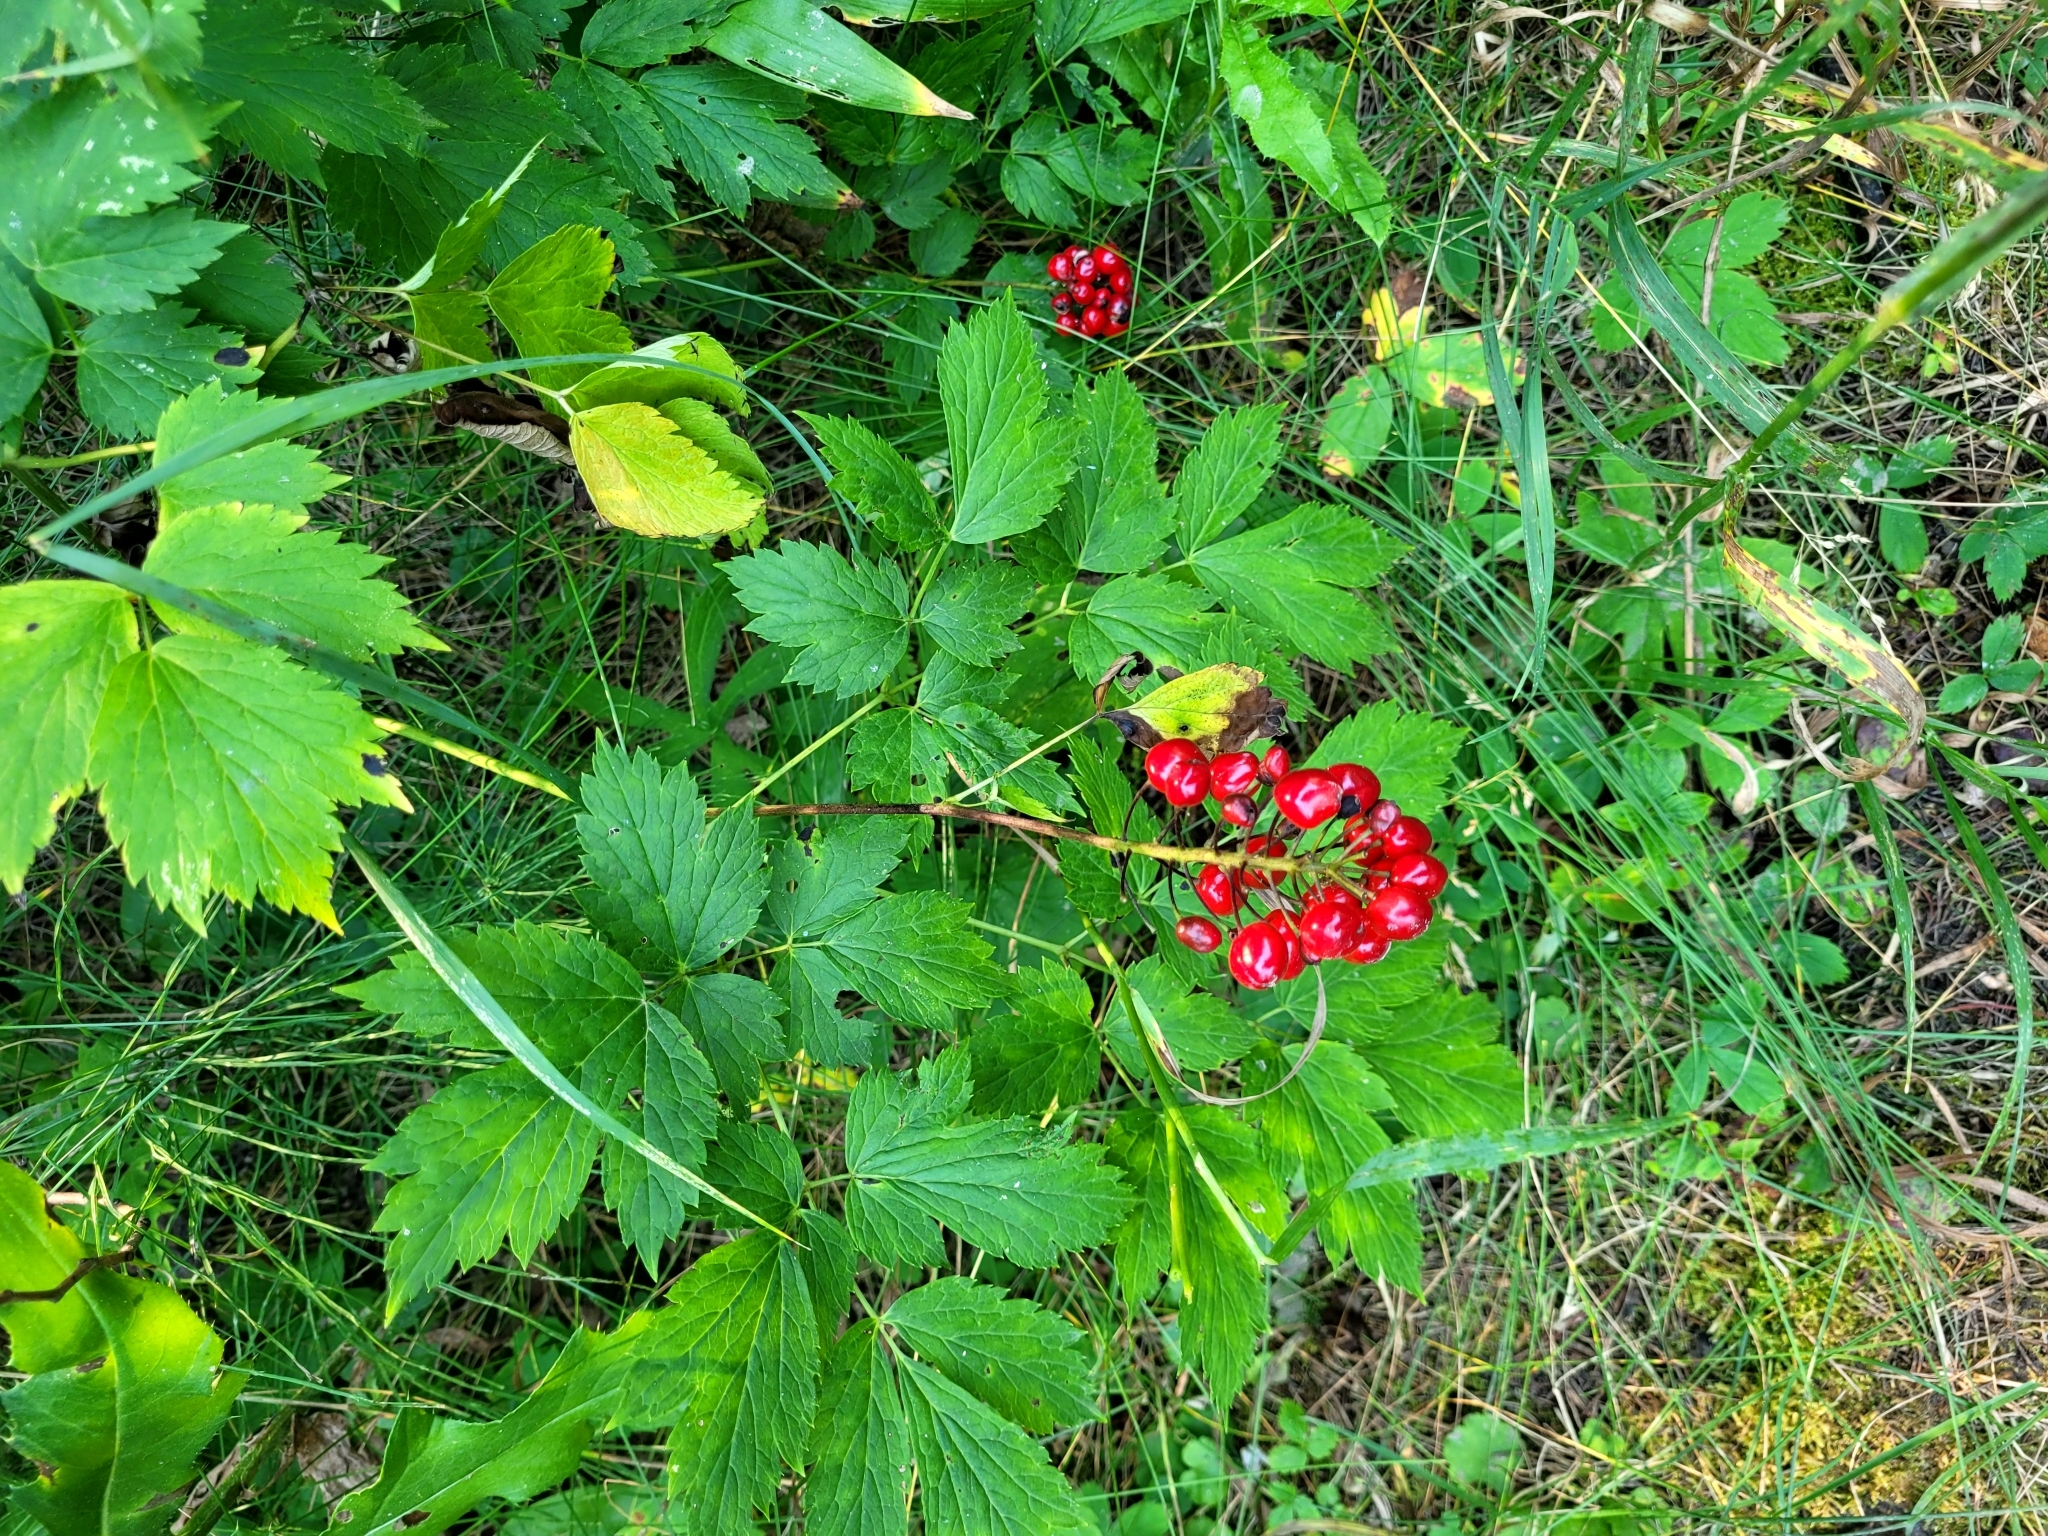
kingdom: Plantae
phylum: Tracheophyta
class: Magnoliopsida
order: Ranunculales
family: Ranunculaceae
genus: Actaea
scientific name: Actaea rubra
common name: Red baneberry
